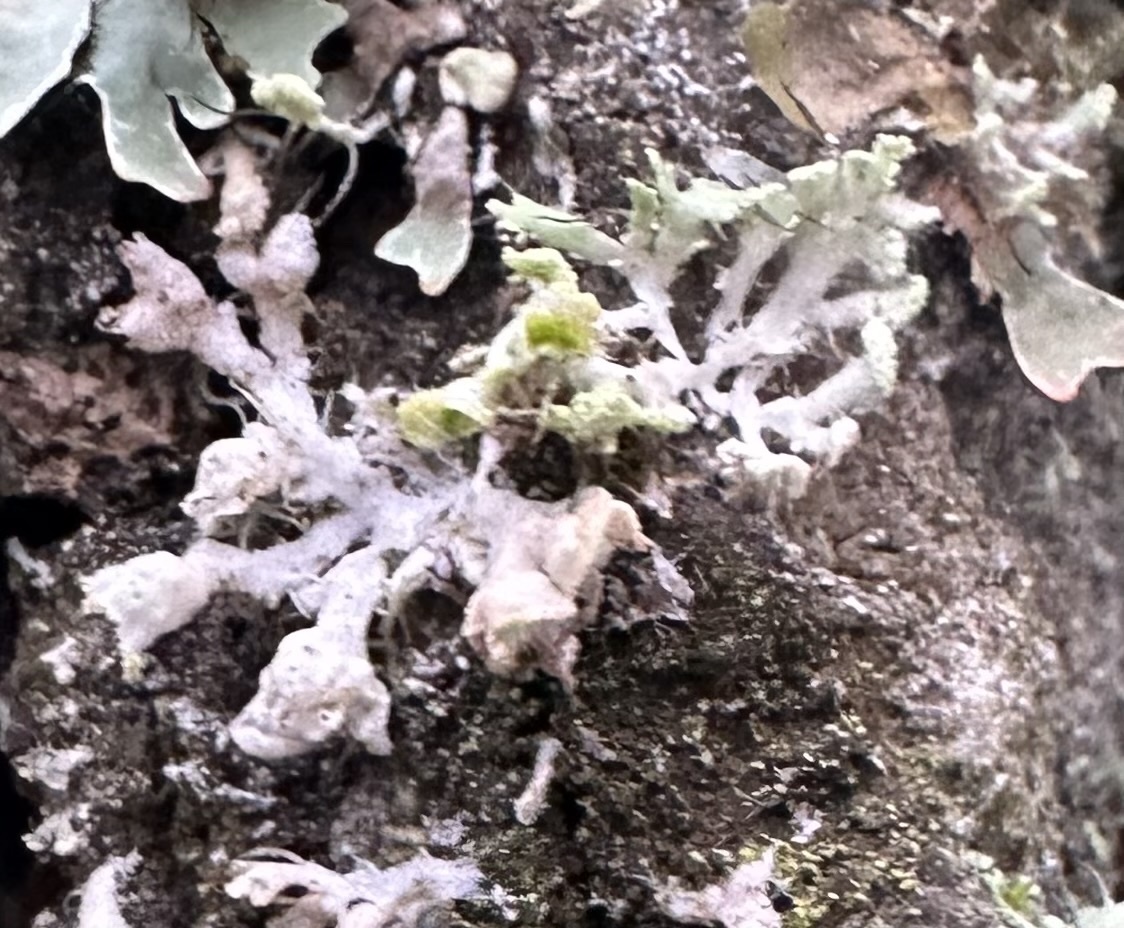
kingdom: Fungi
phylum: Ascomycota
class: Lecanoromycetes
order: Caliciales
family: Physciaceae
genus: Physcia
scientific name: Physcia adscendens
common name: Hooded rosette lichen
